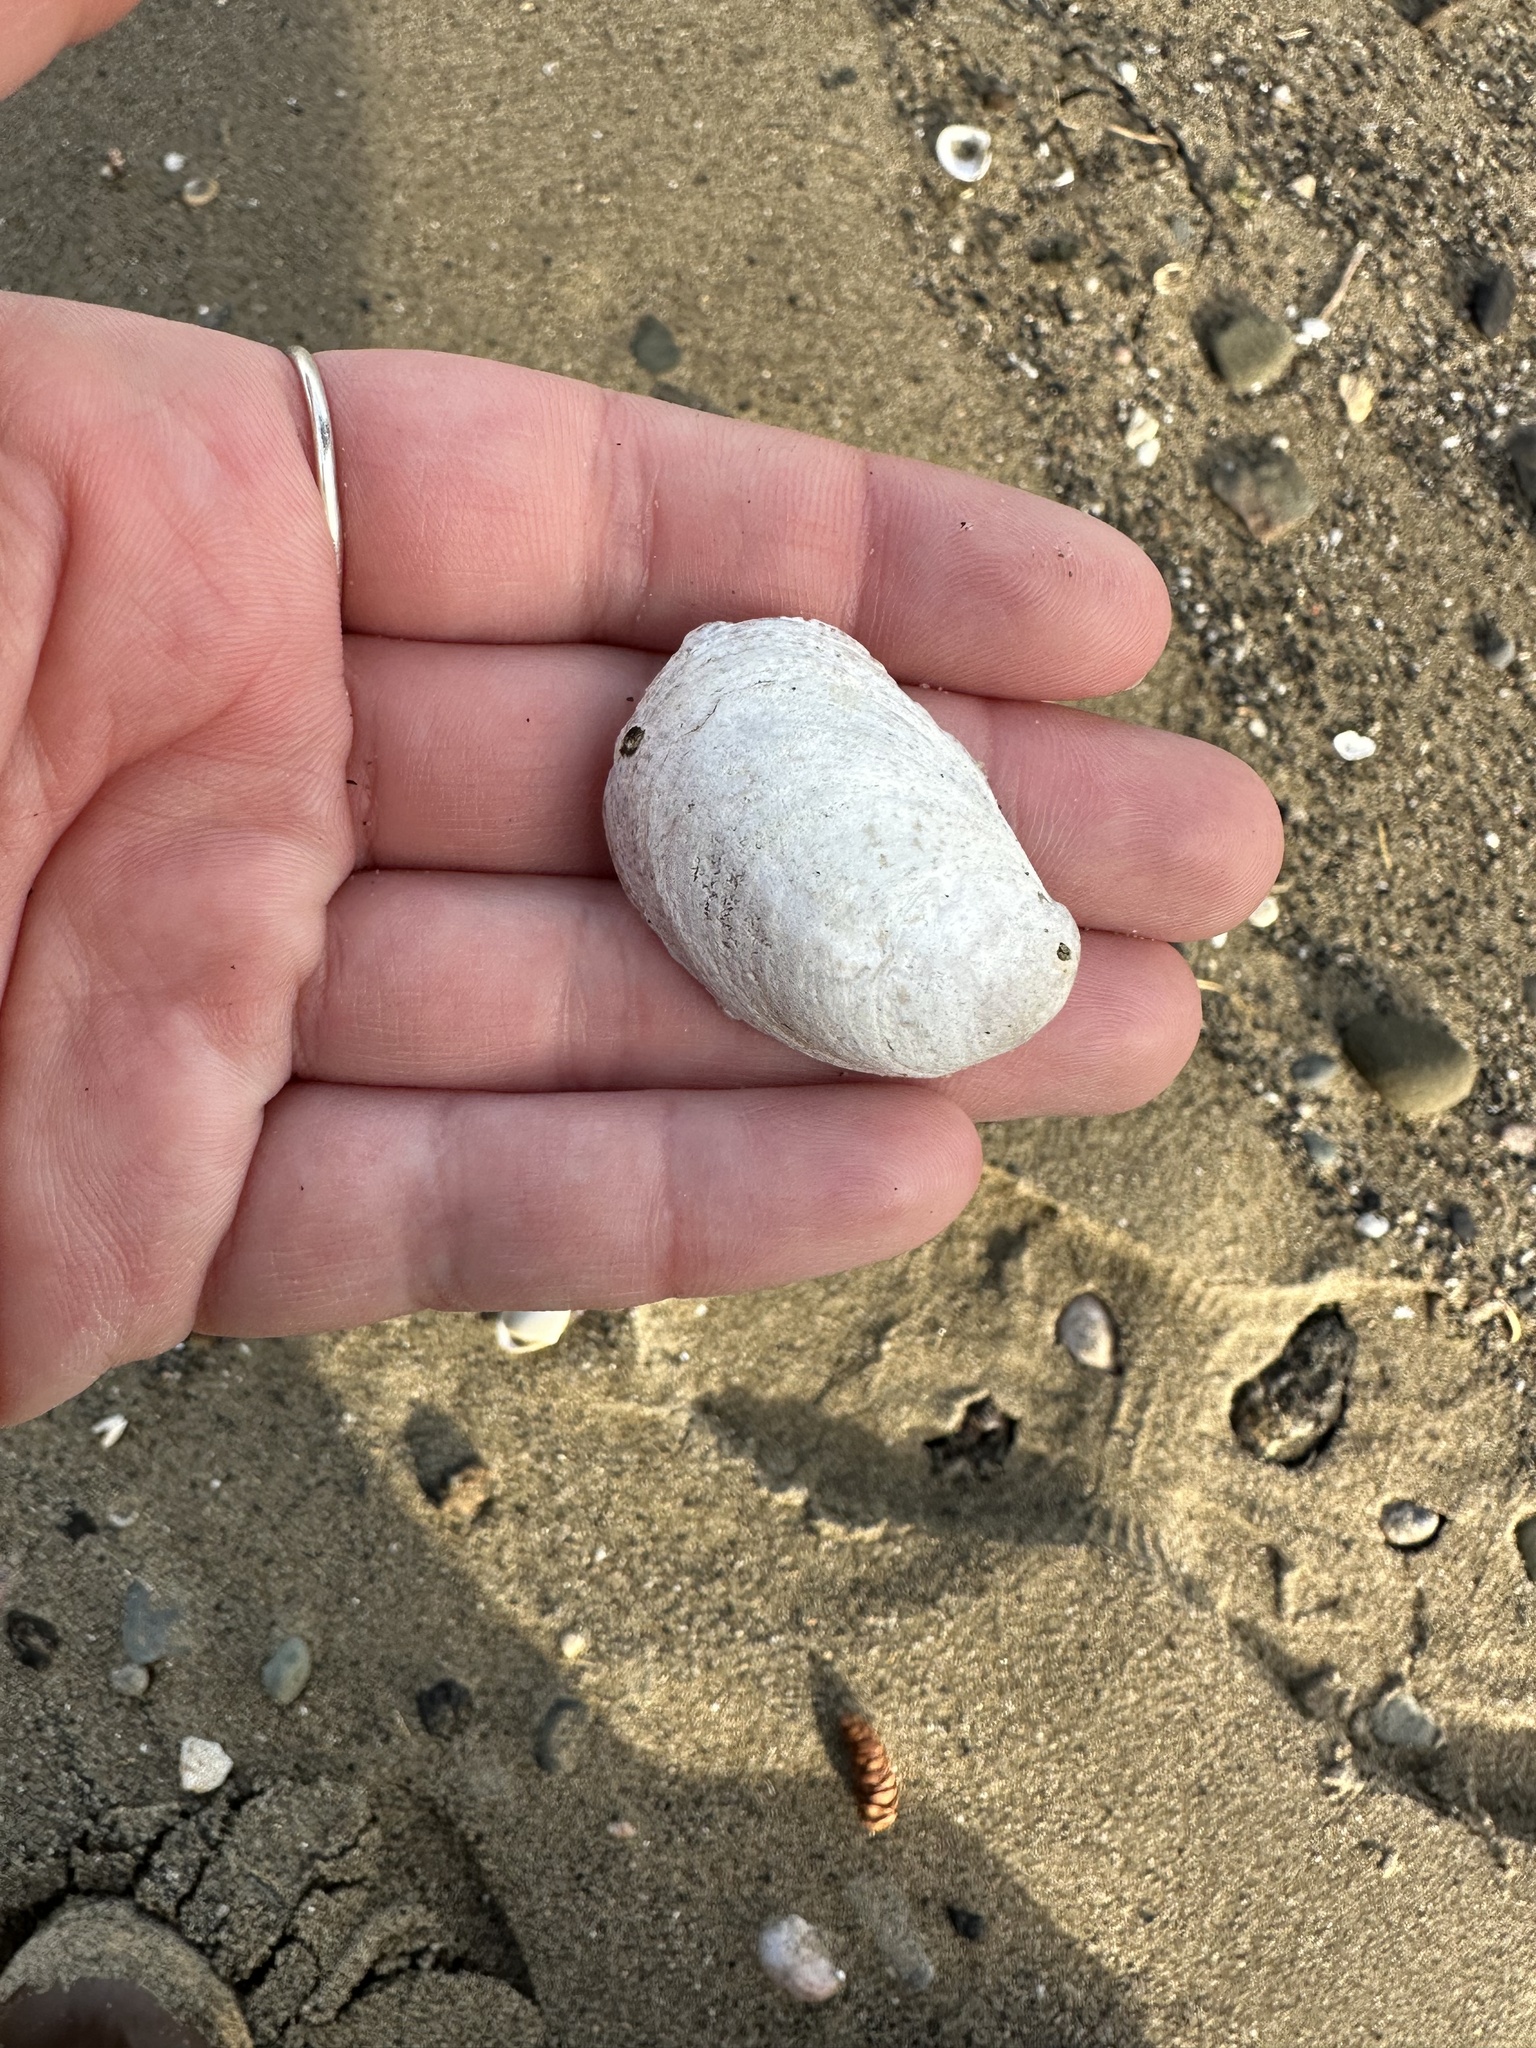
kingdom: Animalia
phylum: Mollusca
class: Gastropoda
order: Littorinimorpha
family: Calyptraeidae
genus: Crepidula
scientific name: Crepidula fornicata
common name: Slipper limpet
